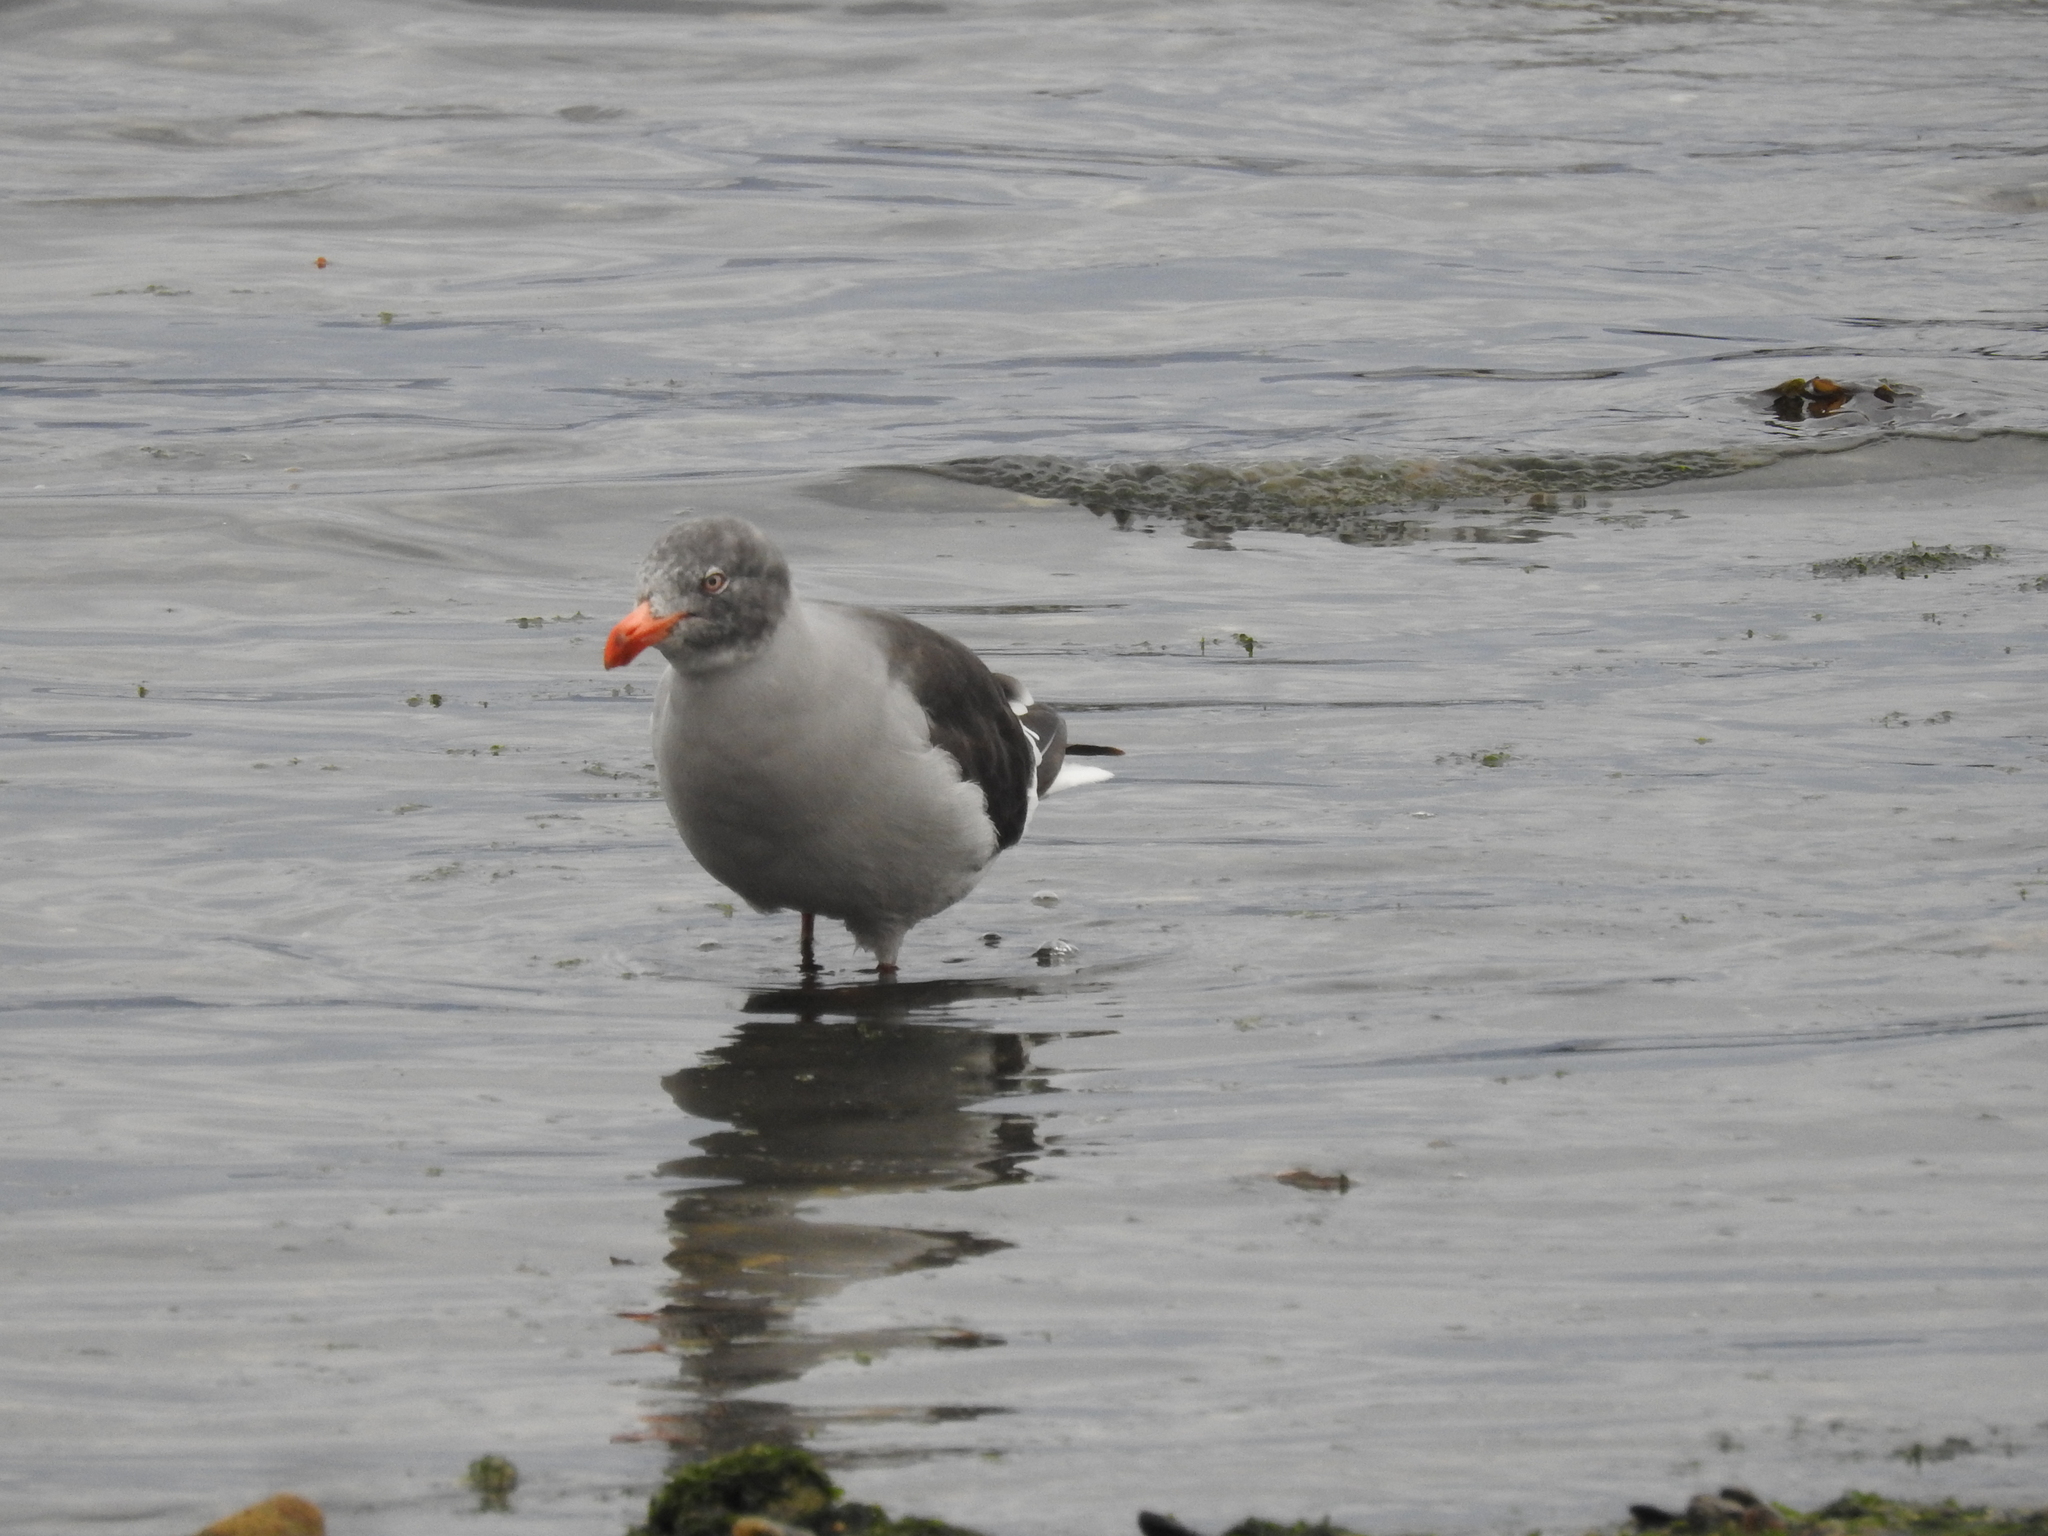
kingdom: Animalia
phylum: Chordata
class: Aves
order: Charadriiformes
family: Laridae
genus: Leucophaeus
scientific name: Leucophaeus scoresbii
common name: Dolphin gull
